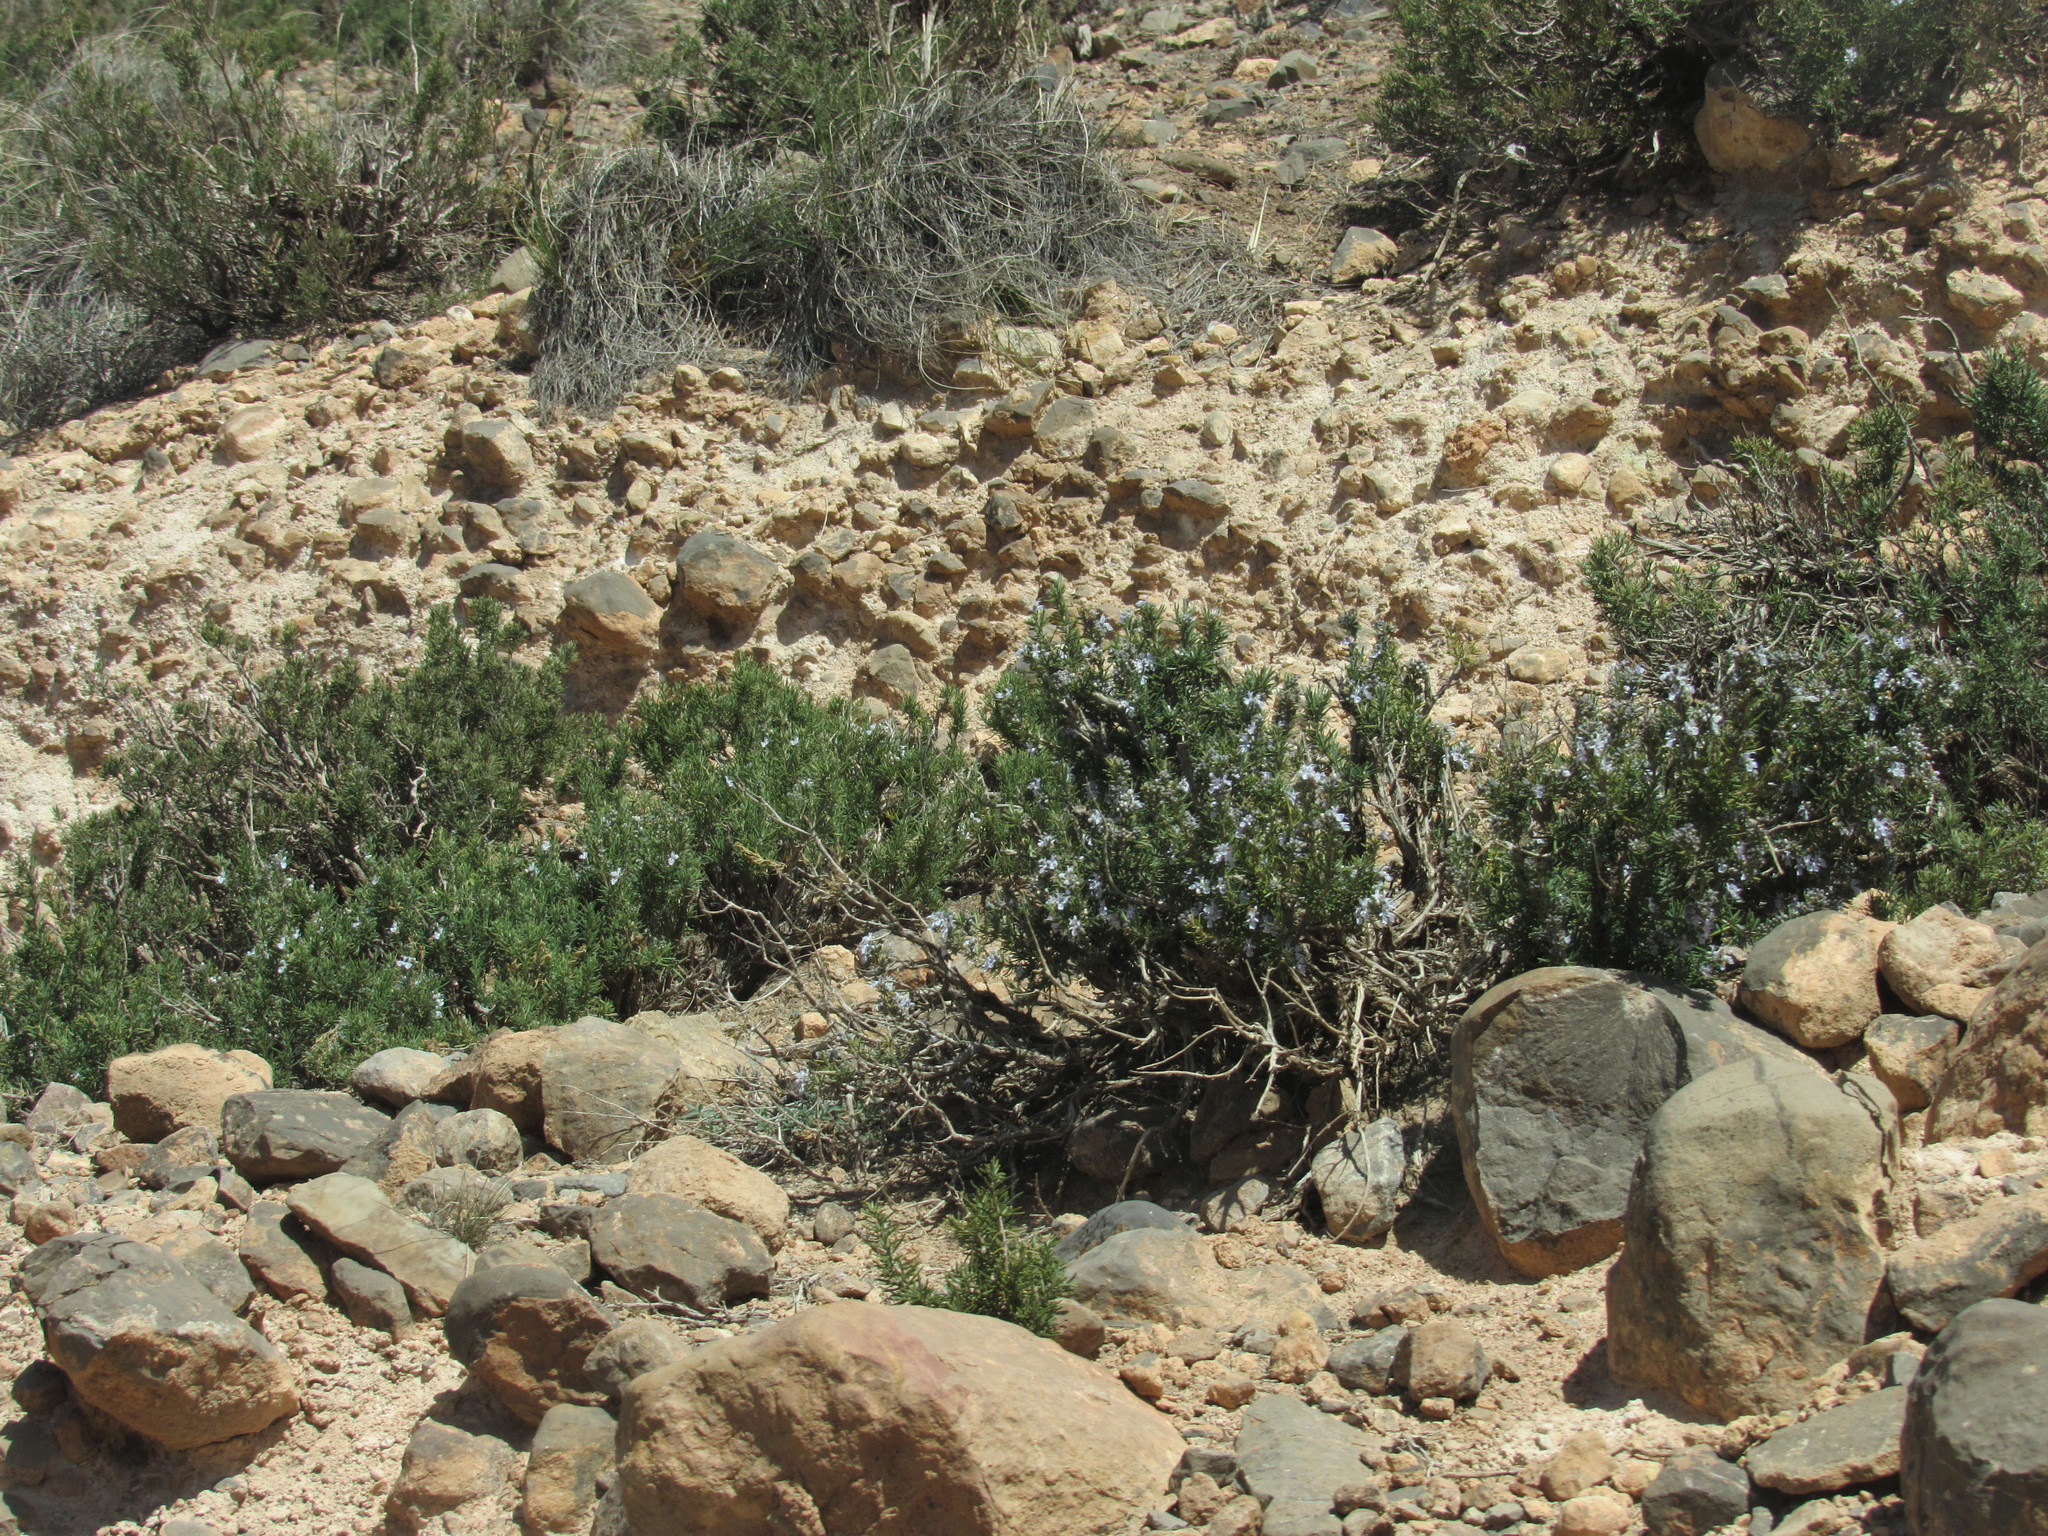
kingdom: Plantae
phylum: Tracheophyta
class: Magnoliopsida
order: Lamiales
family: Lamiaceae
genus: Salvia
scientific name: Salvia rosmarinus
